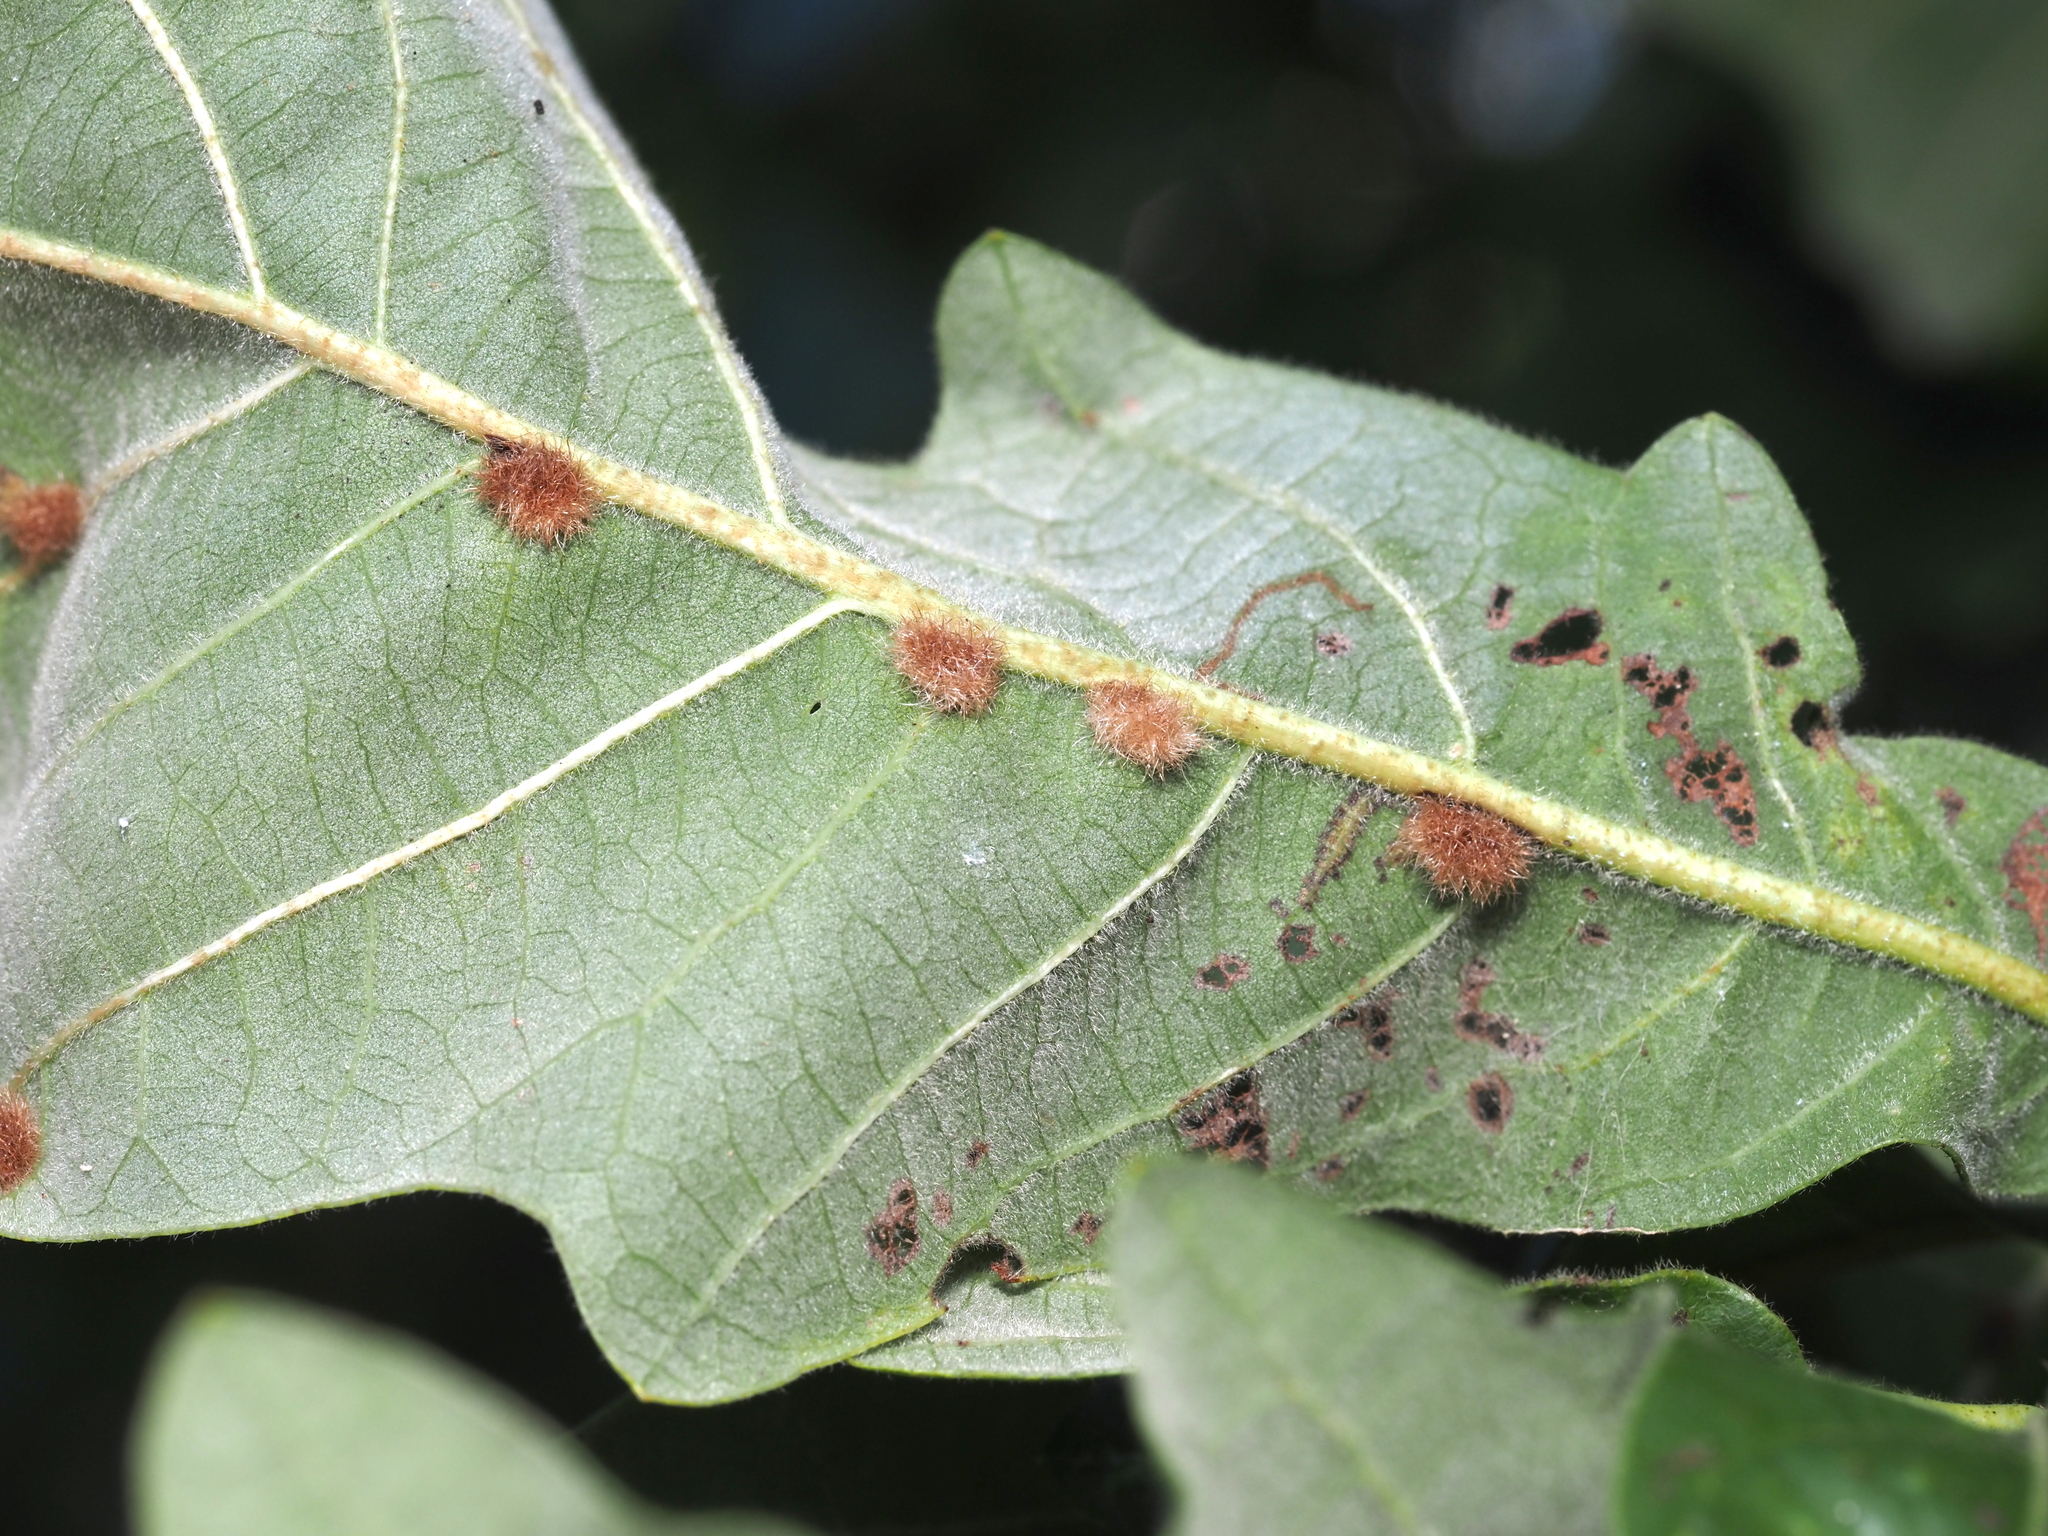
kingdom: Animalia
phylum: Arthropoda
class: Insecta
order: Hymenoptera
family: Cynipidae
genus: Neuroterus
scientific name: Neuroterus floccosus
